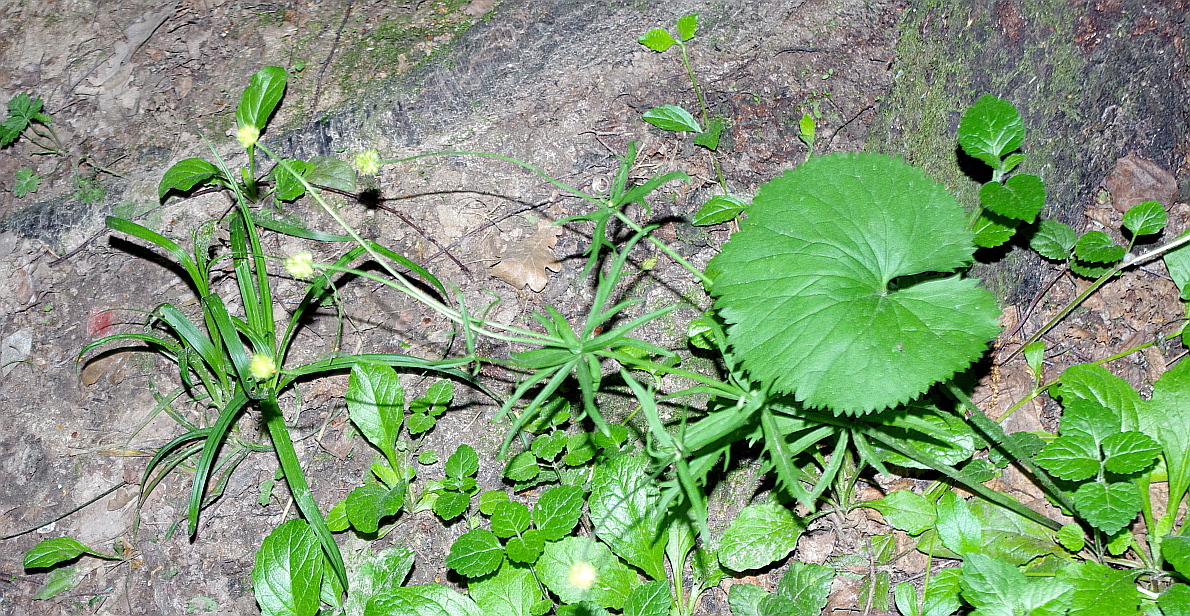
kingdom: Plantae
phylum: Tracheophyta
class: Magnoliopsida
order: Ranunculales
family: Ranunculaceae
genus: Ranunculus
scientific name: Ranunculus cassubicus
